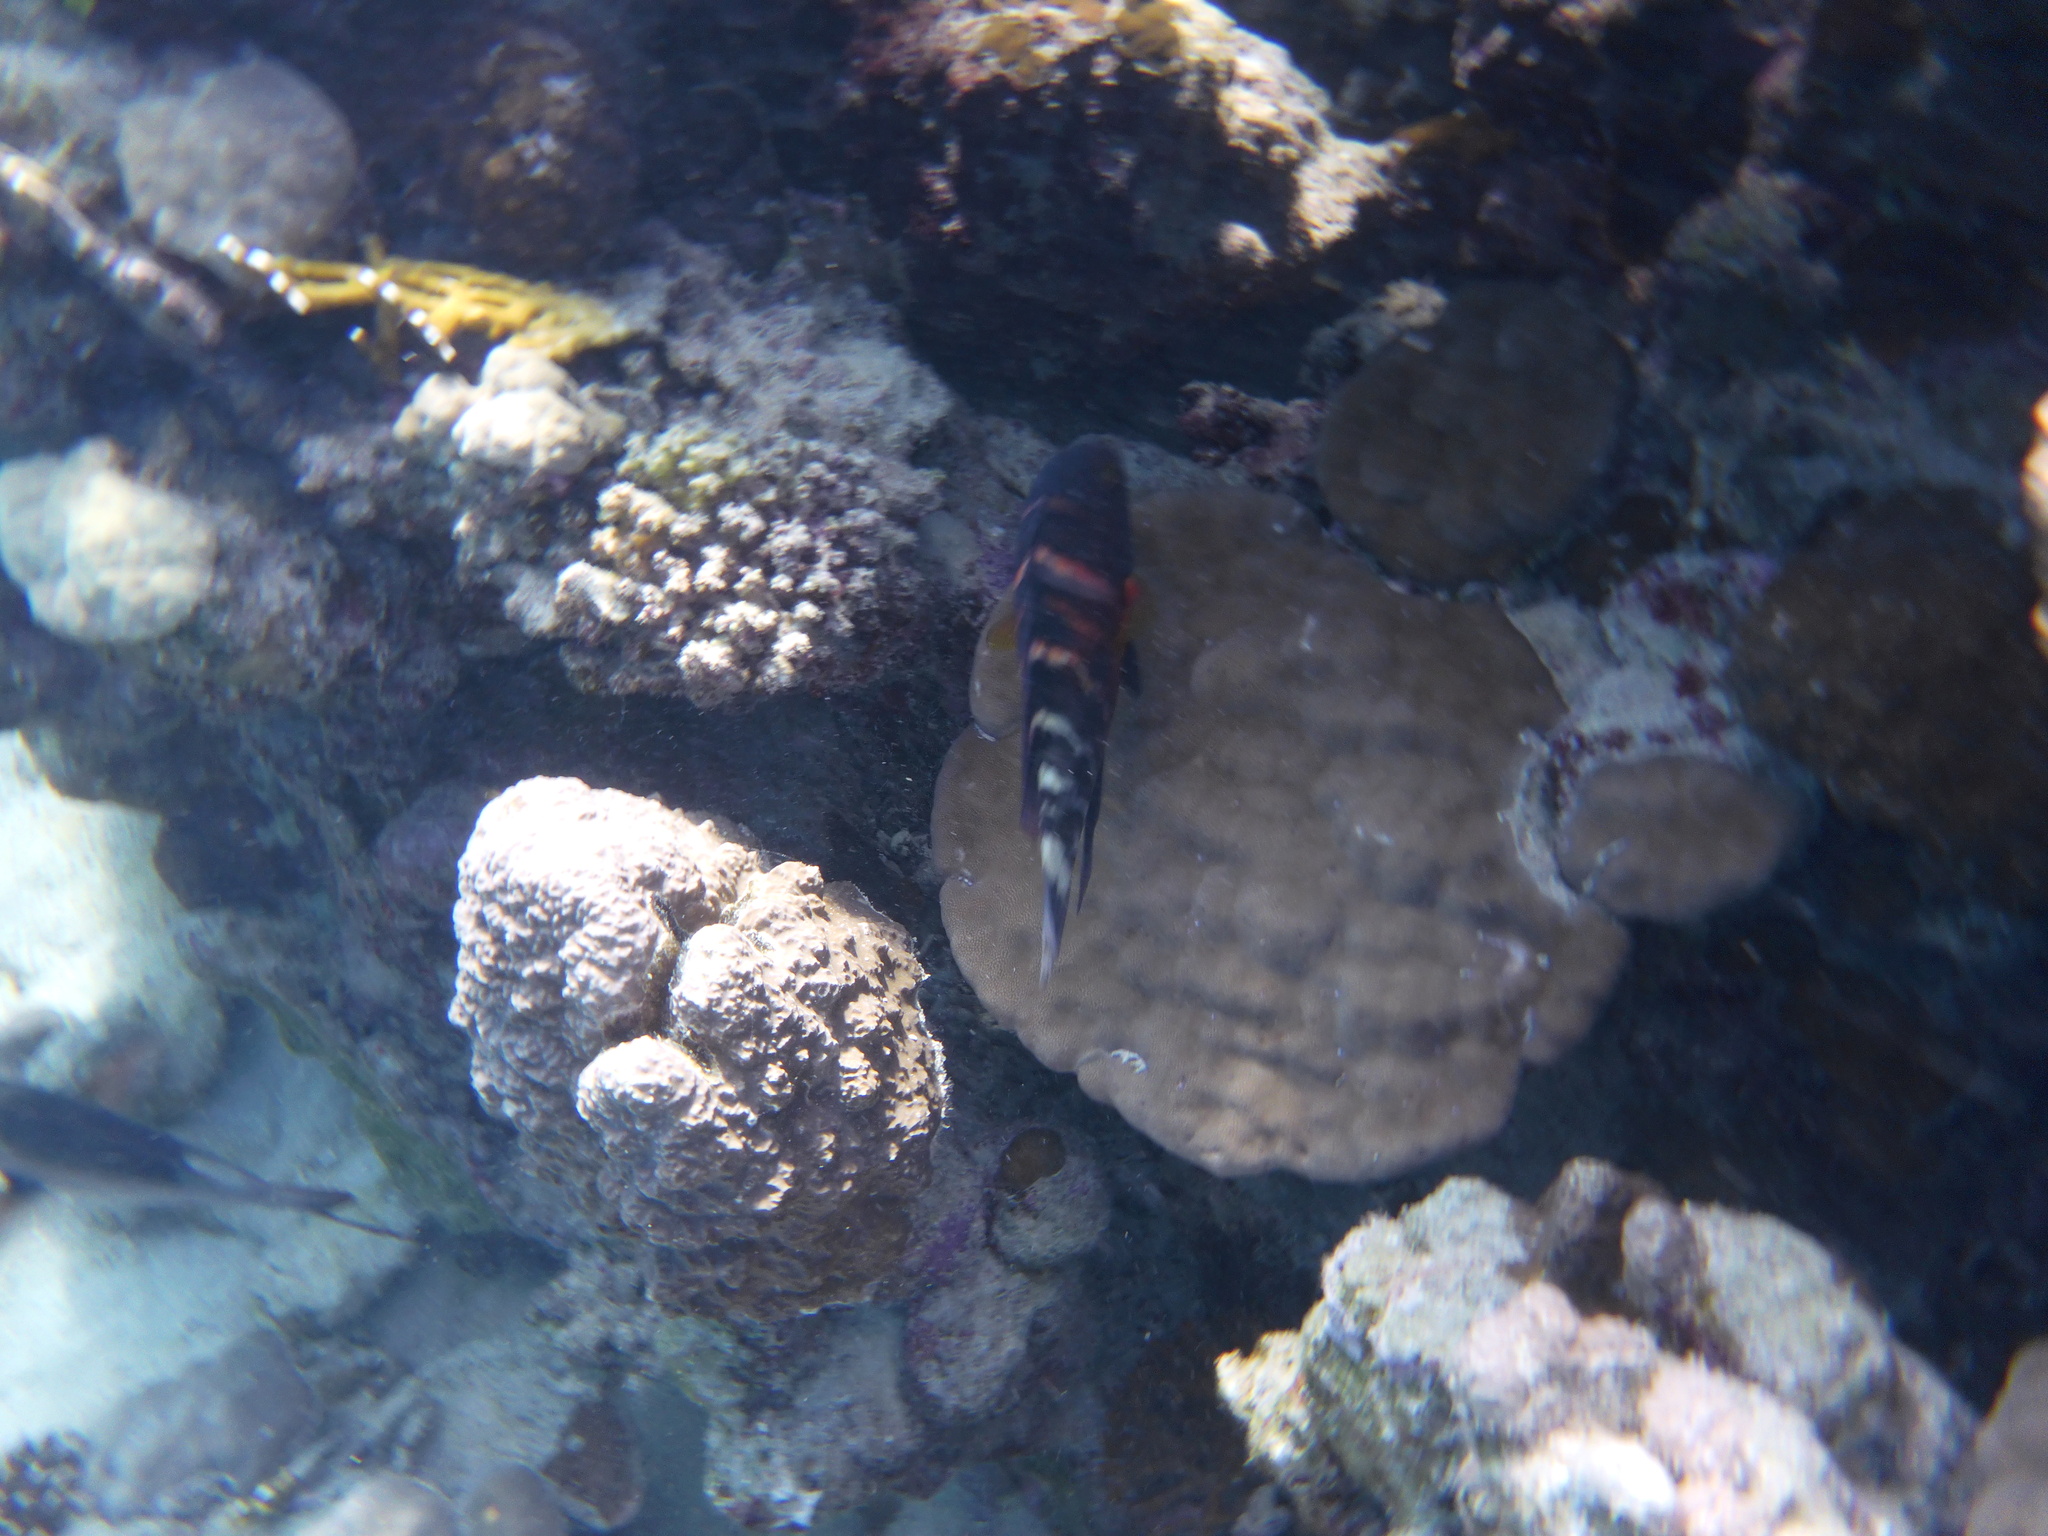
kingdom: Animalia
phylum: Chordata
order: Perciformes
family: Labridae
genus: Cheilinus
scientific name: Cheilinus fasciatus
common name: Red-breasted wrasse
